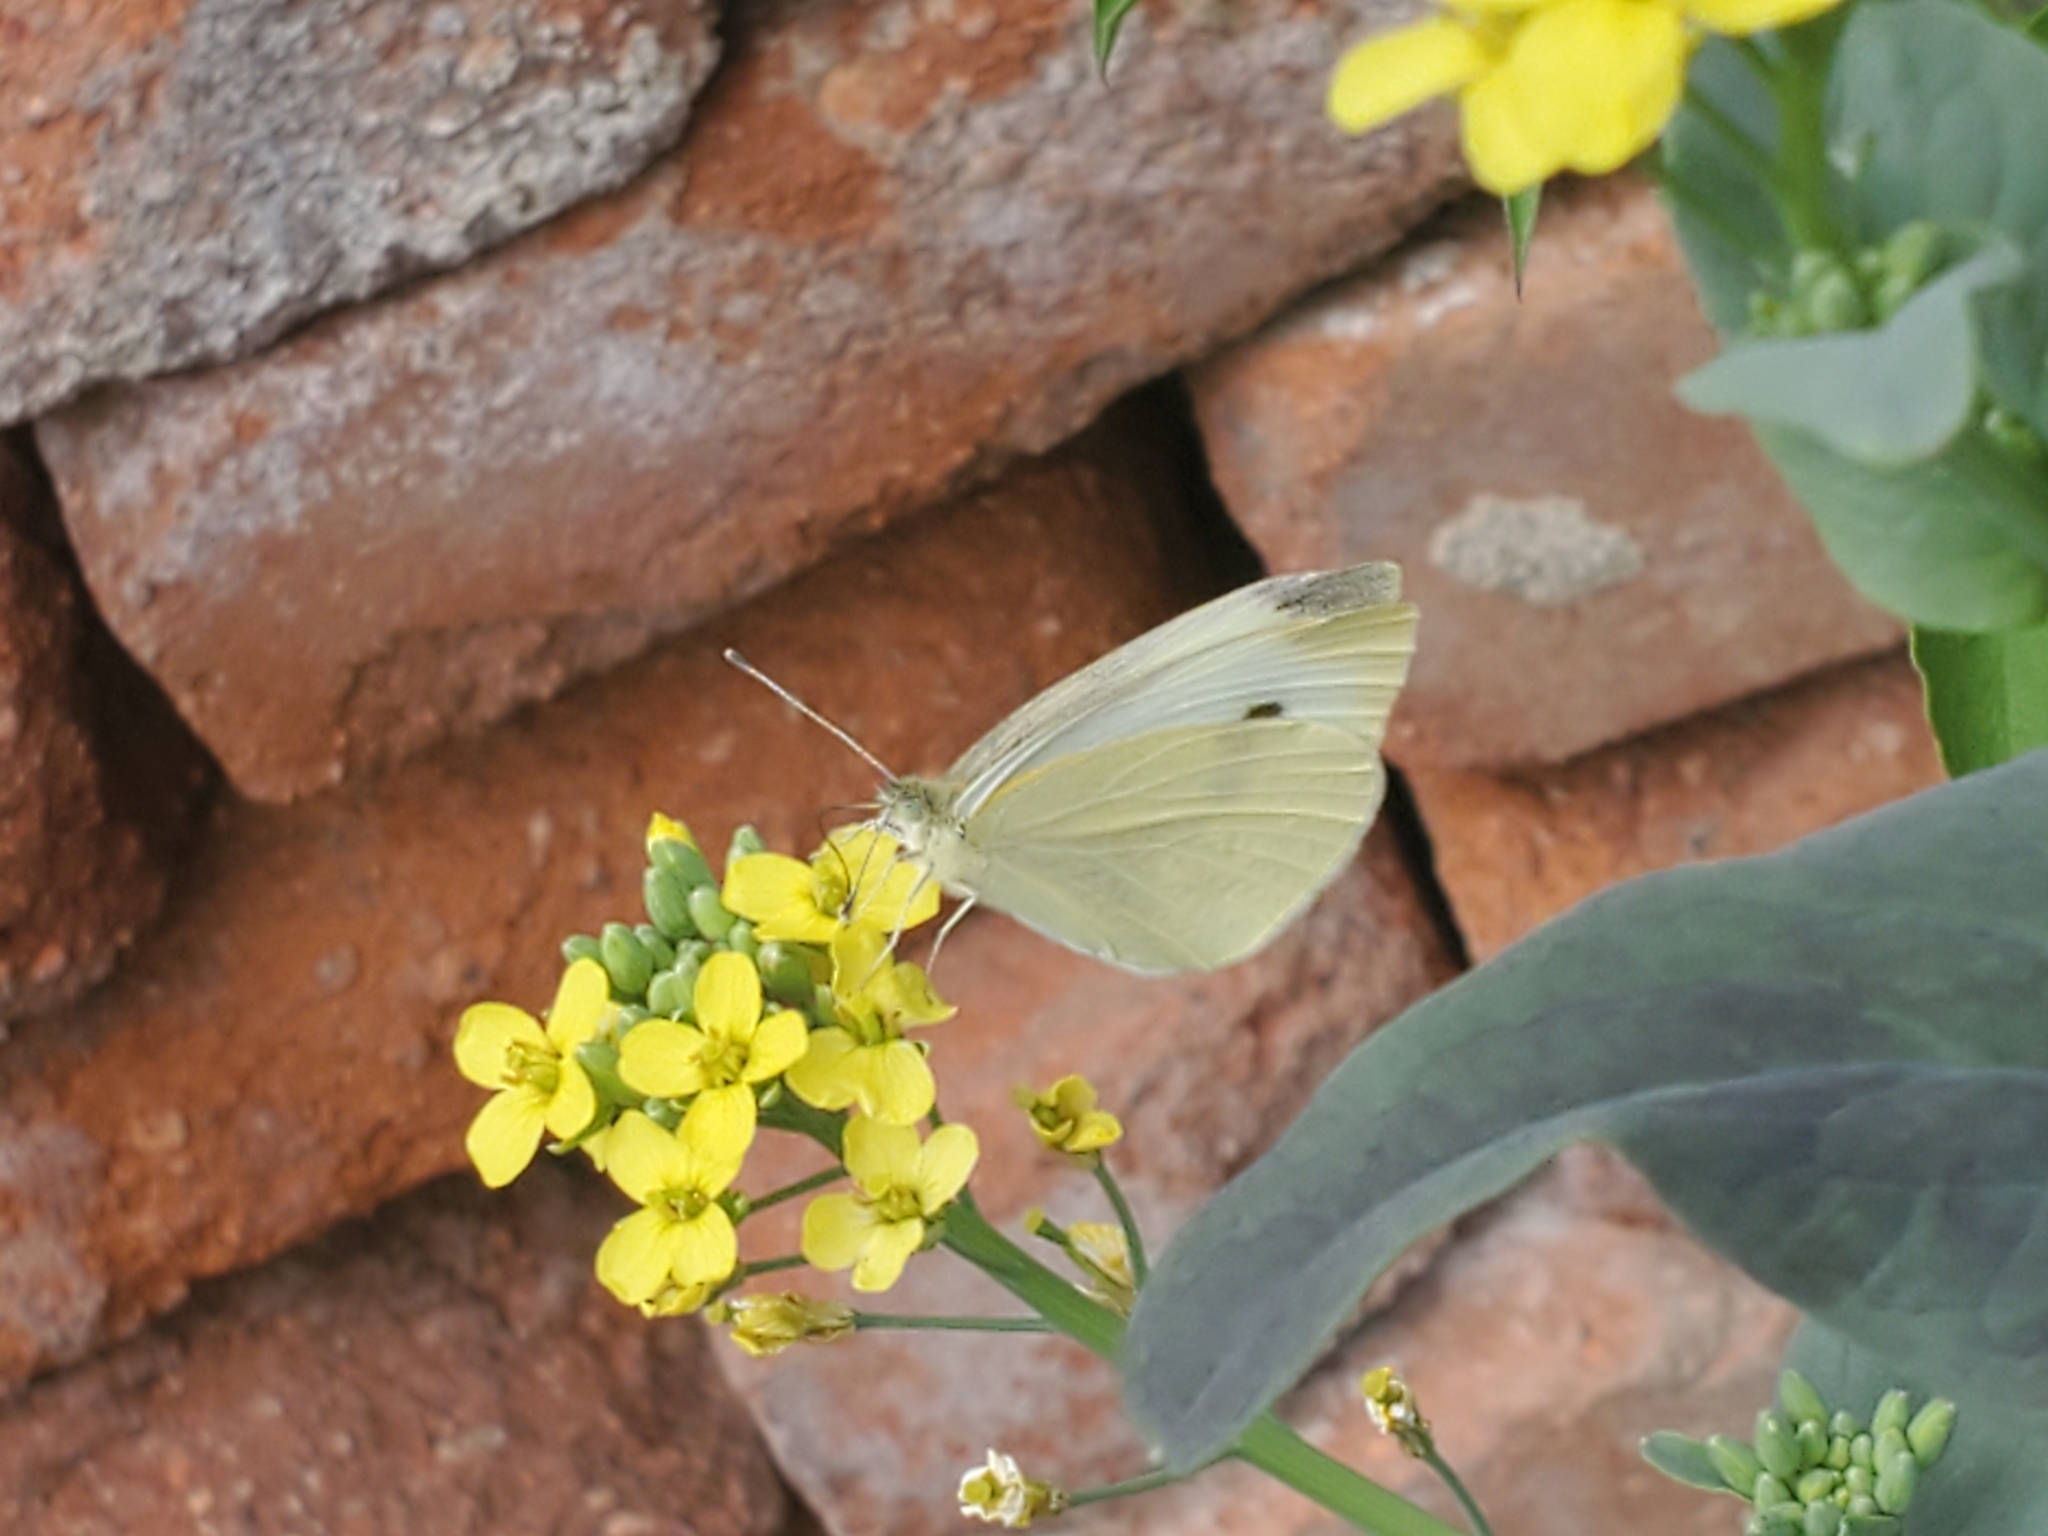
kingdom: Animalia
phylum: Arthropoda
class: Insecta
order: Lepidoptera
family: Pieridae
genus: Pieris
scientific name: Pieris rapae
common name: Small white
